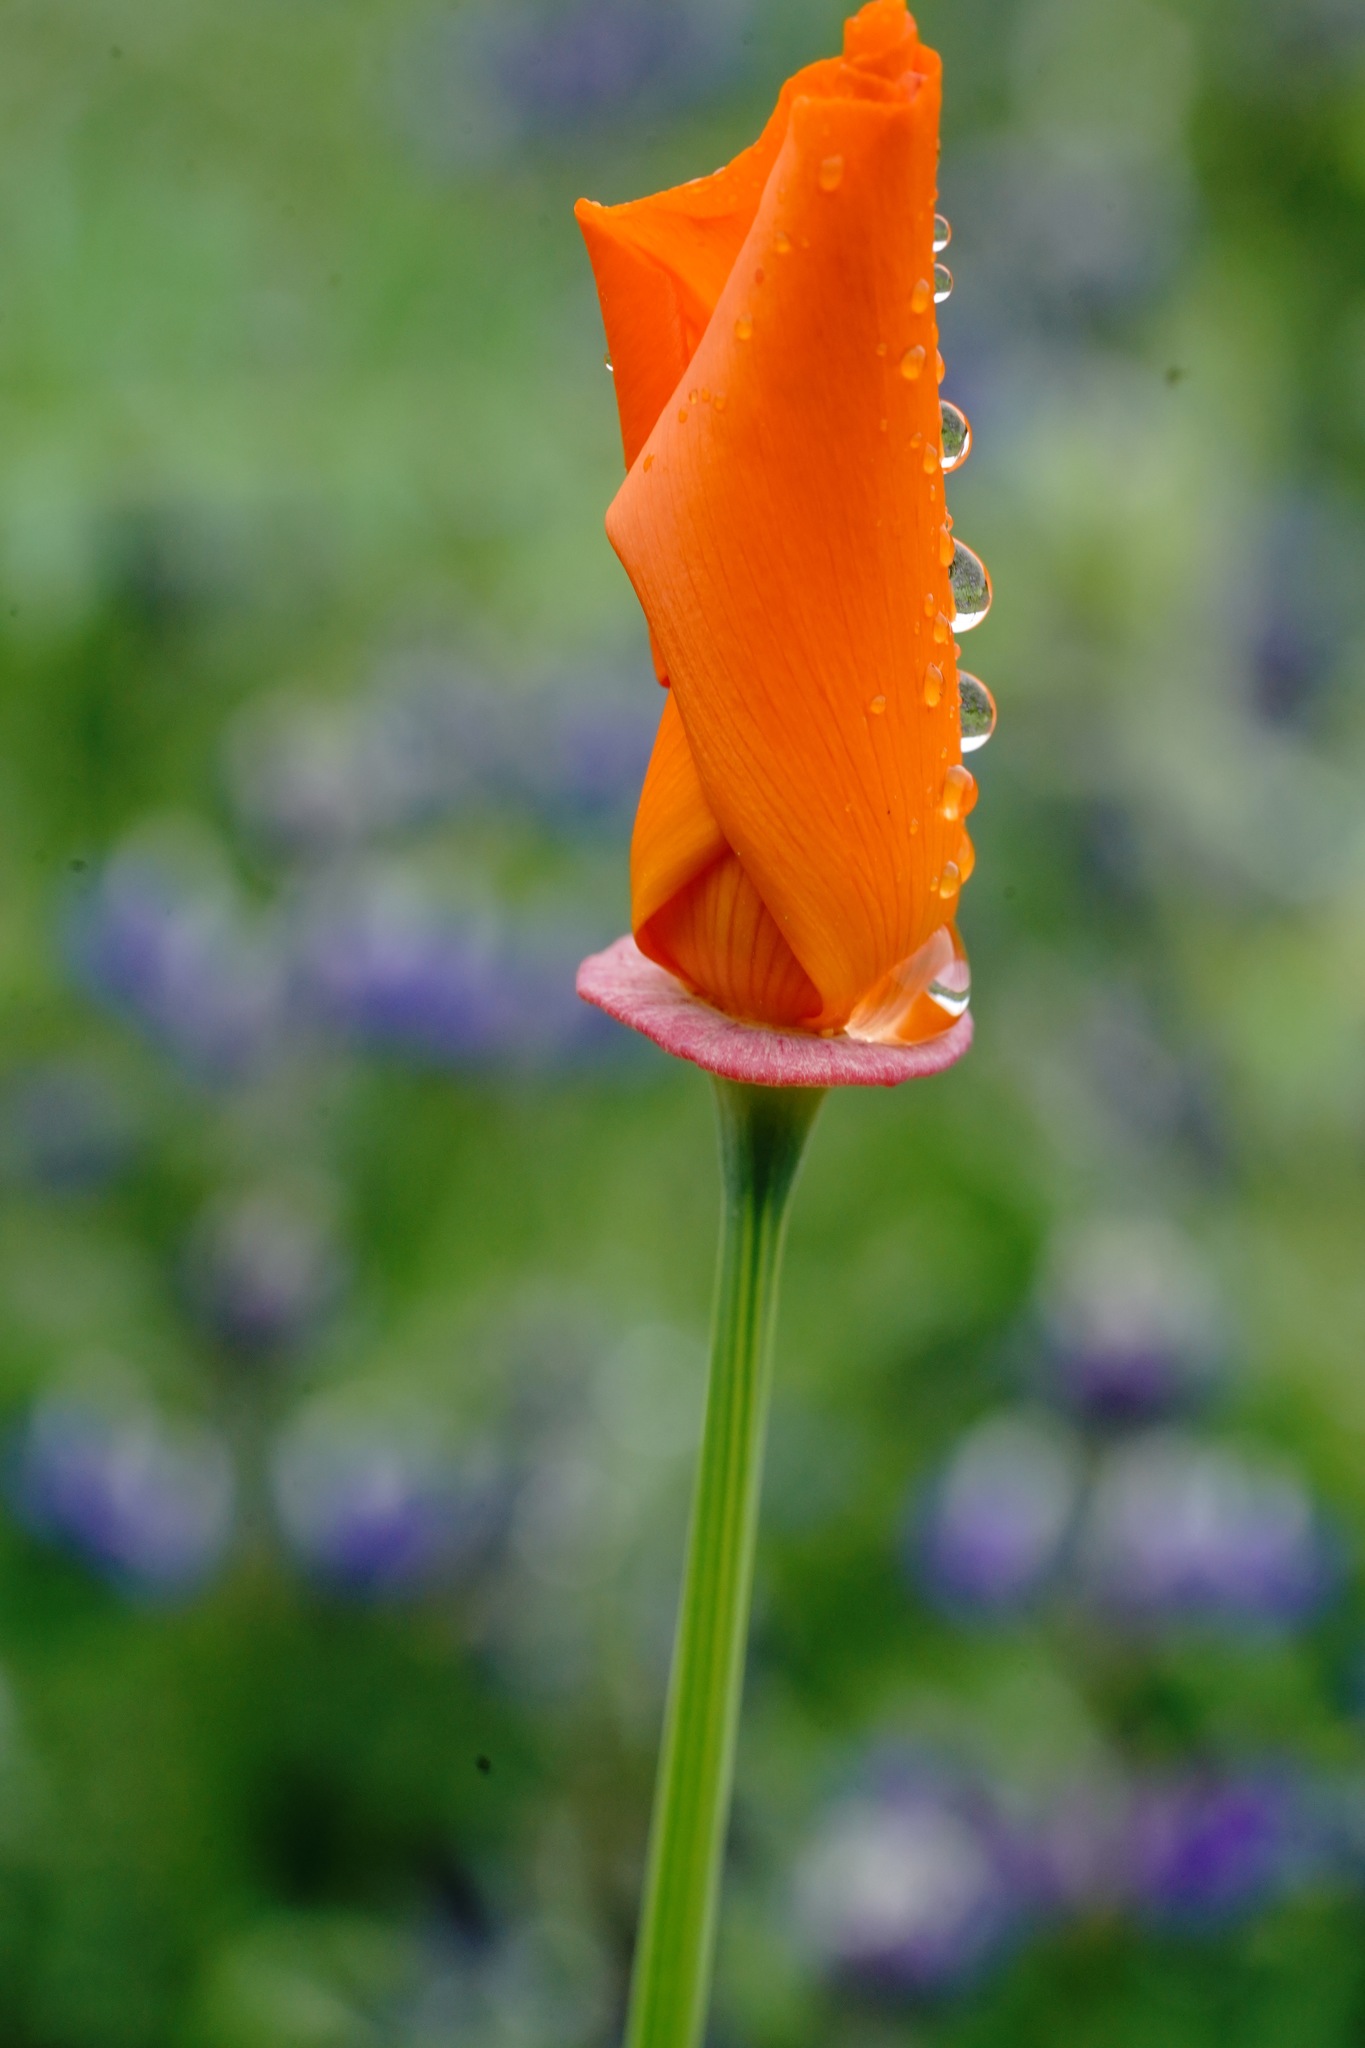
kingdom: Plantae
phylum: Tracheophyta
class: Magnoliopsida
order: Ranunculales
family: Papaveraceae
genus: Eschscholzia
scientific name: Eschscholzia californica
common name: California poppy
